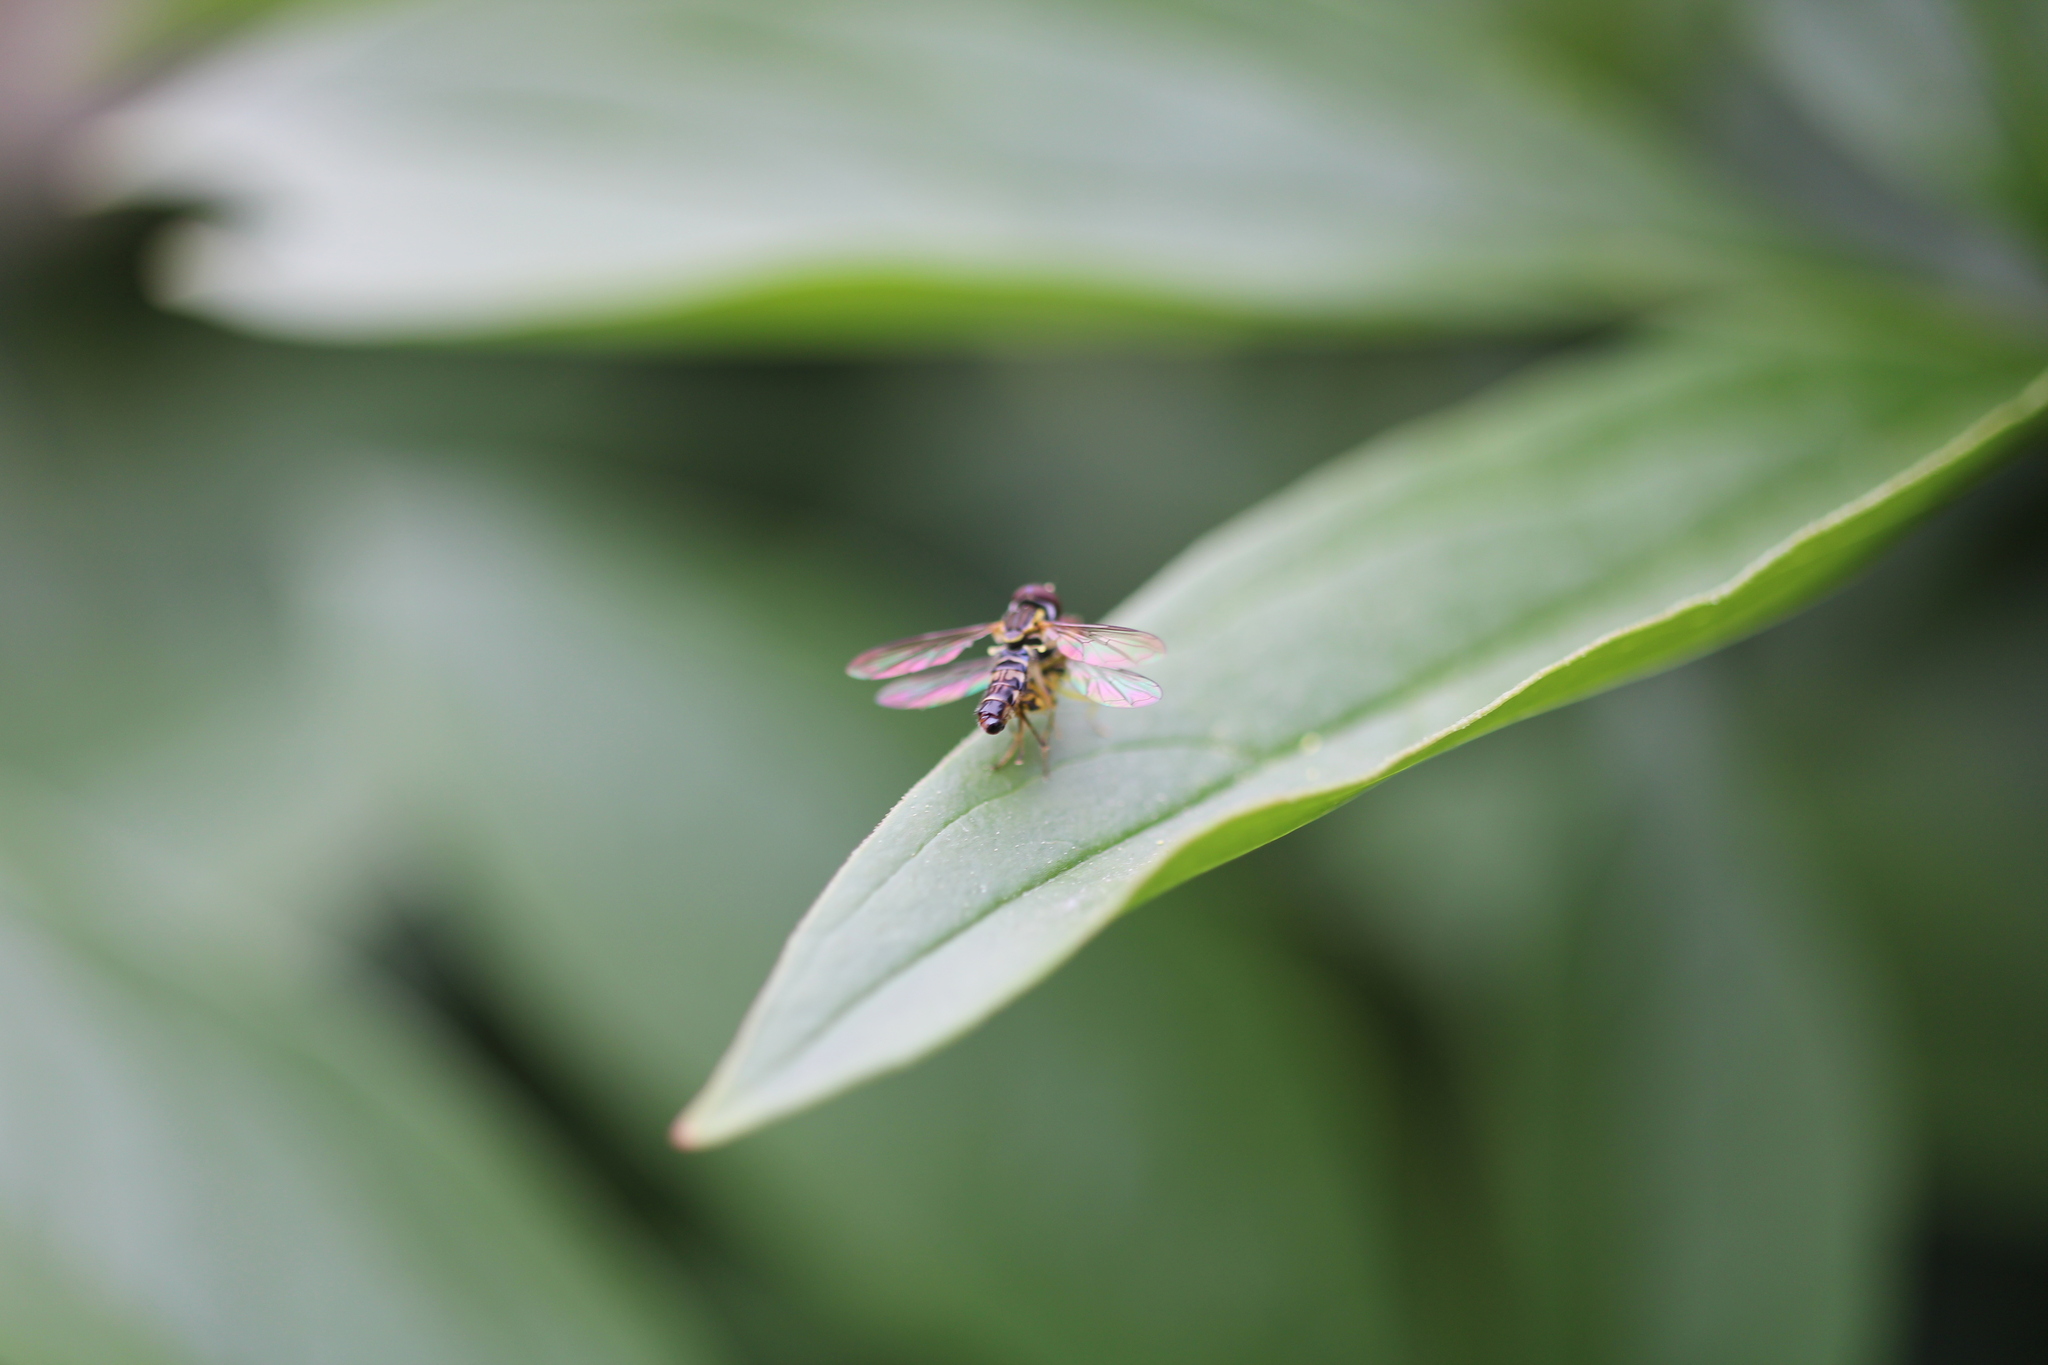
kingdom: Animalia
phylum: Arthropoda
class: Insecta
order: Diptera
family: Syrphidae
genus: Toxomerus
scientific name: Toxomerus geminatus
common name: Eastern calligrapher
